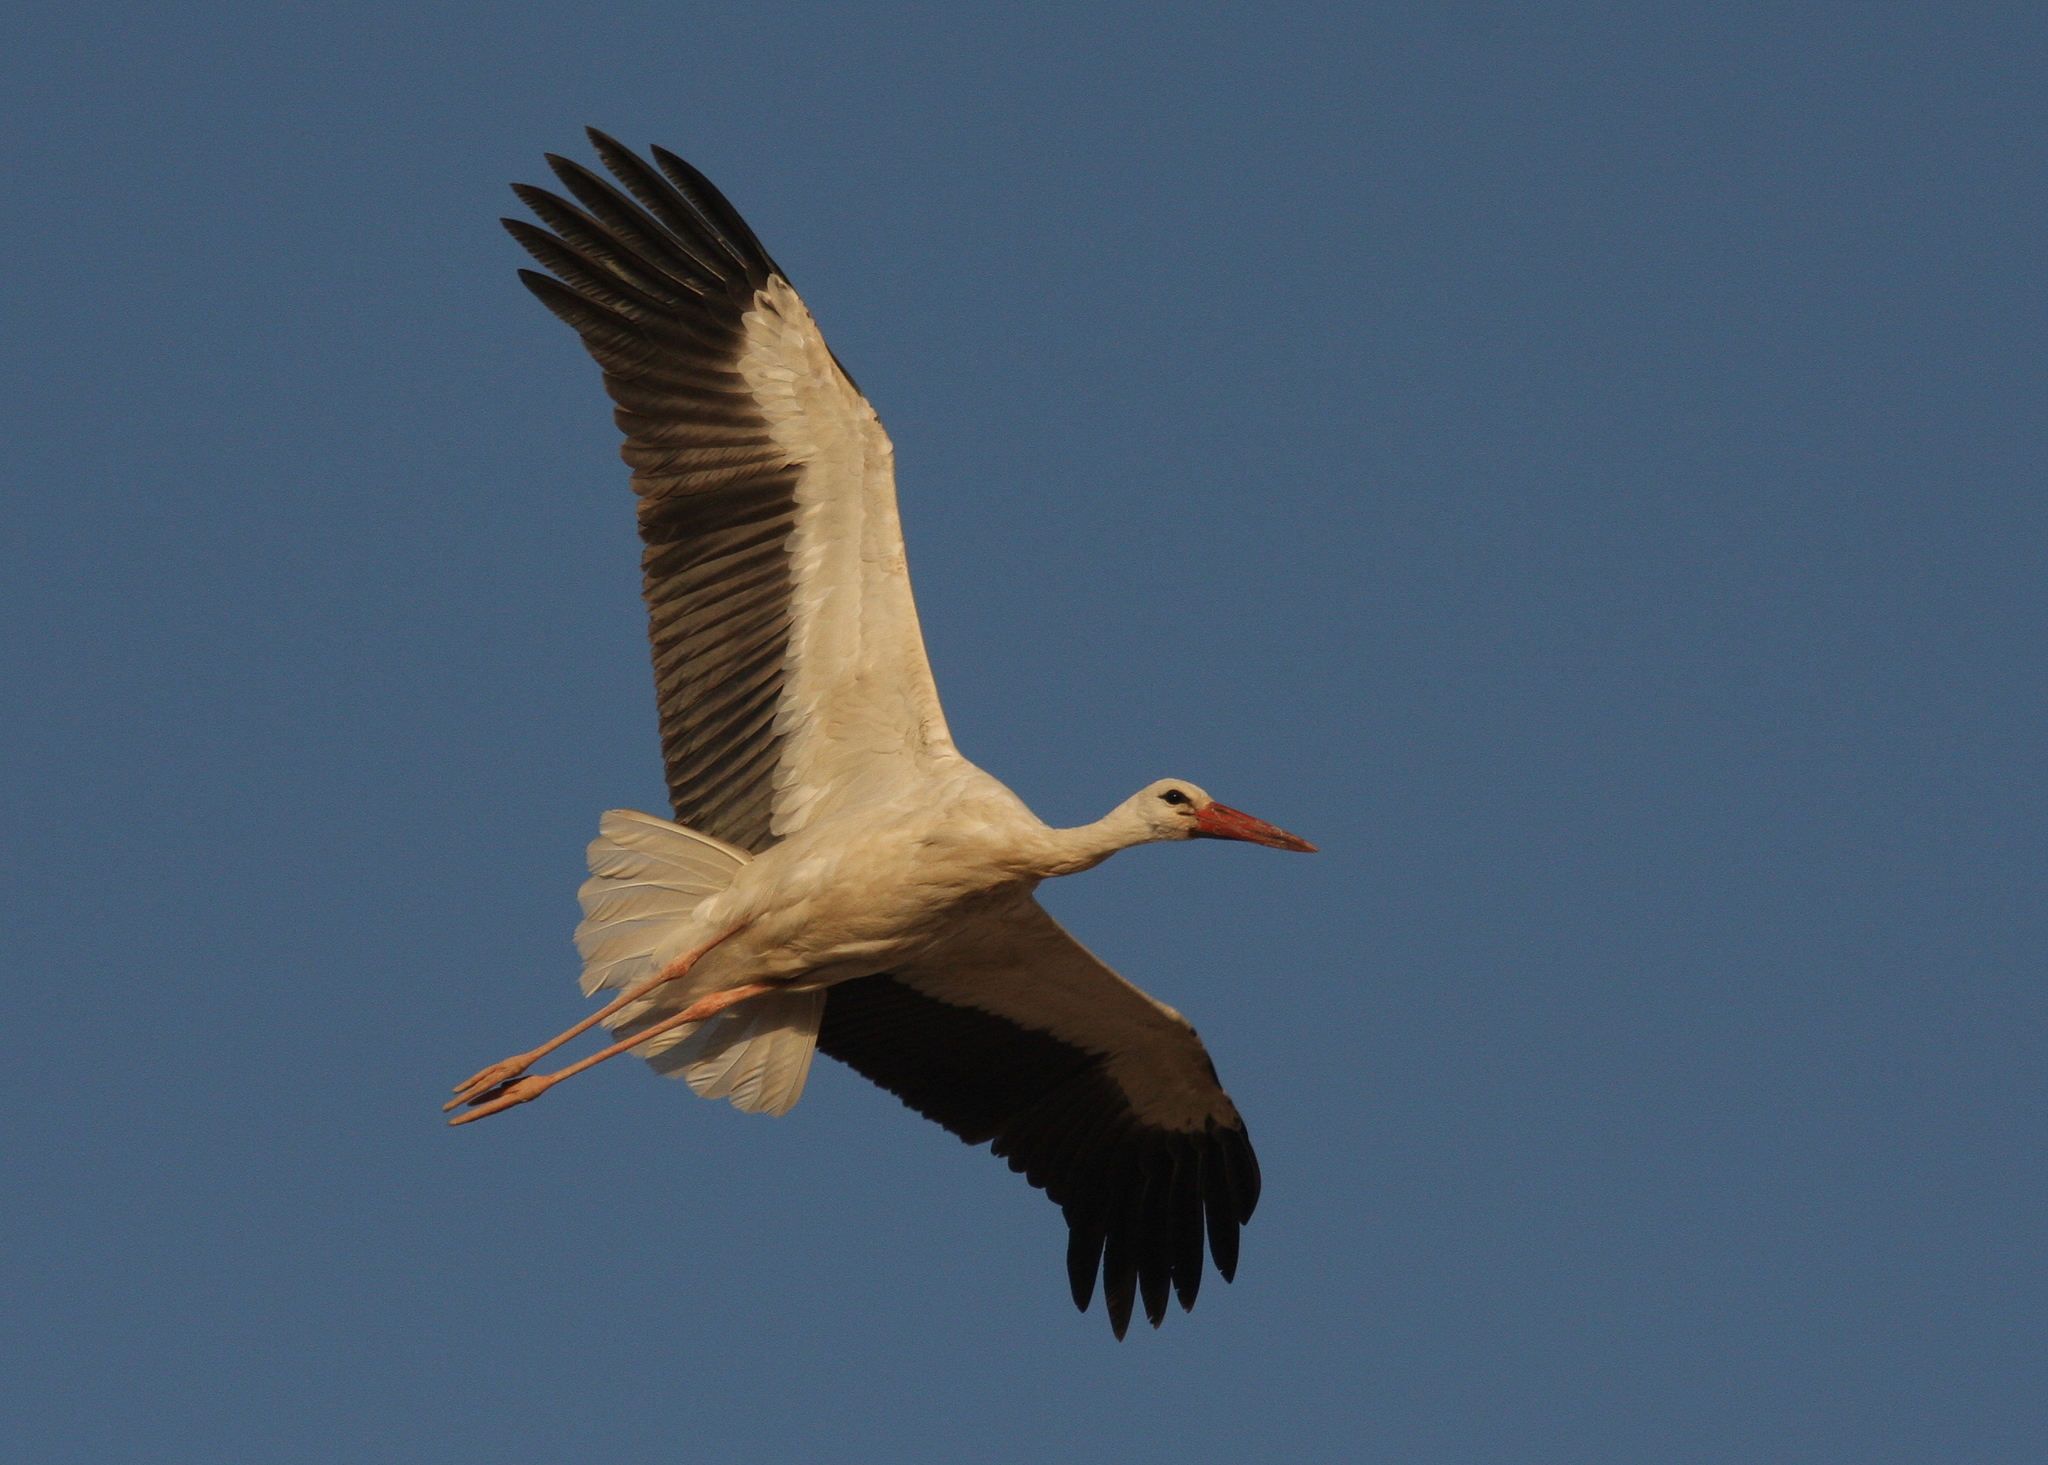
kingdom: Animalia
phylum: Chordata
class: Aves
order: Ciconiiformes
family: Ciconiidae
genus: Ciconia
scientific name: Ciconia ciconia
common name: White stork
